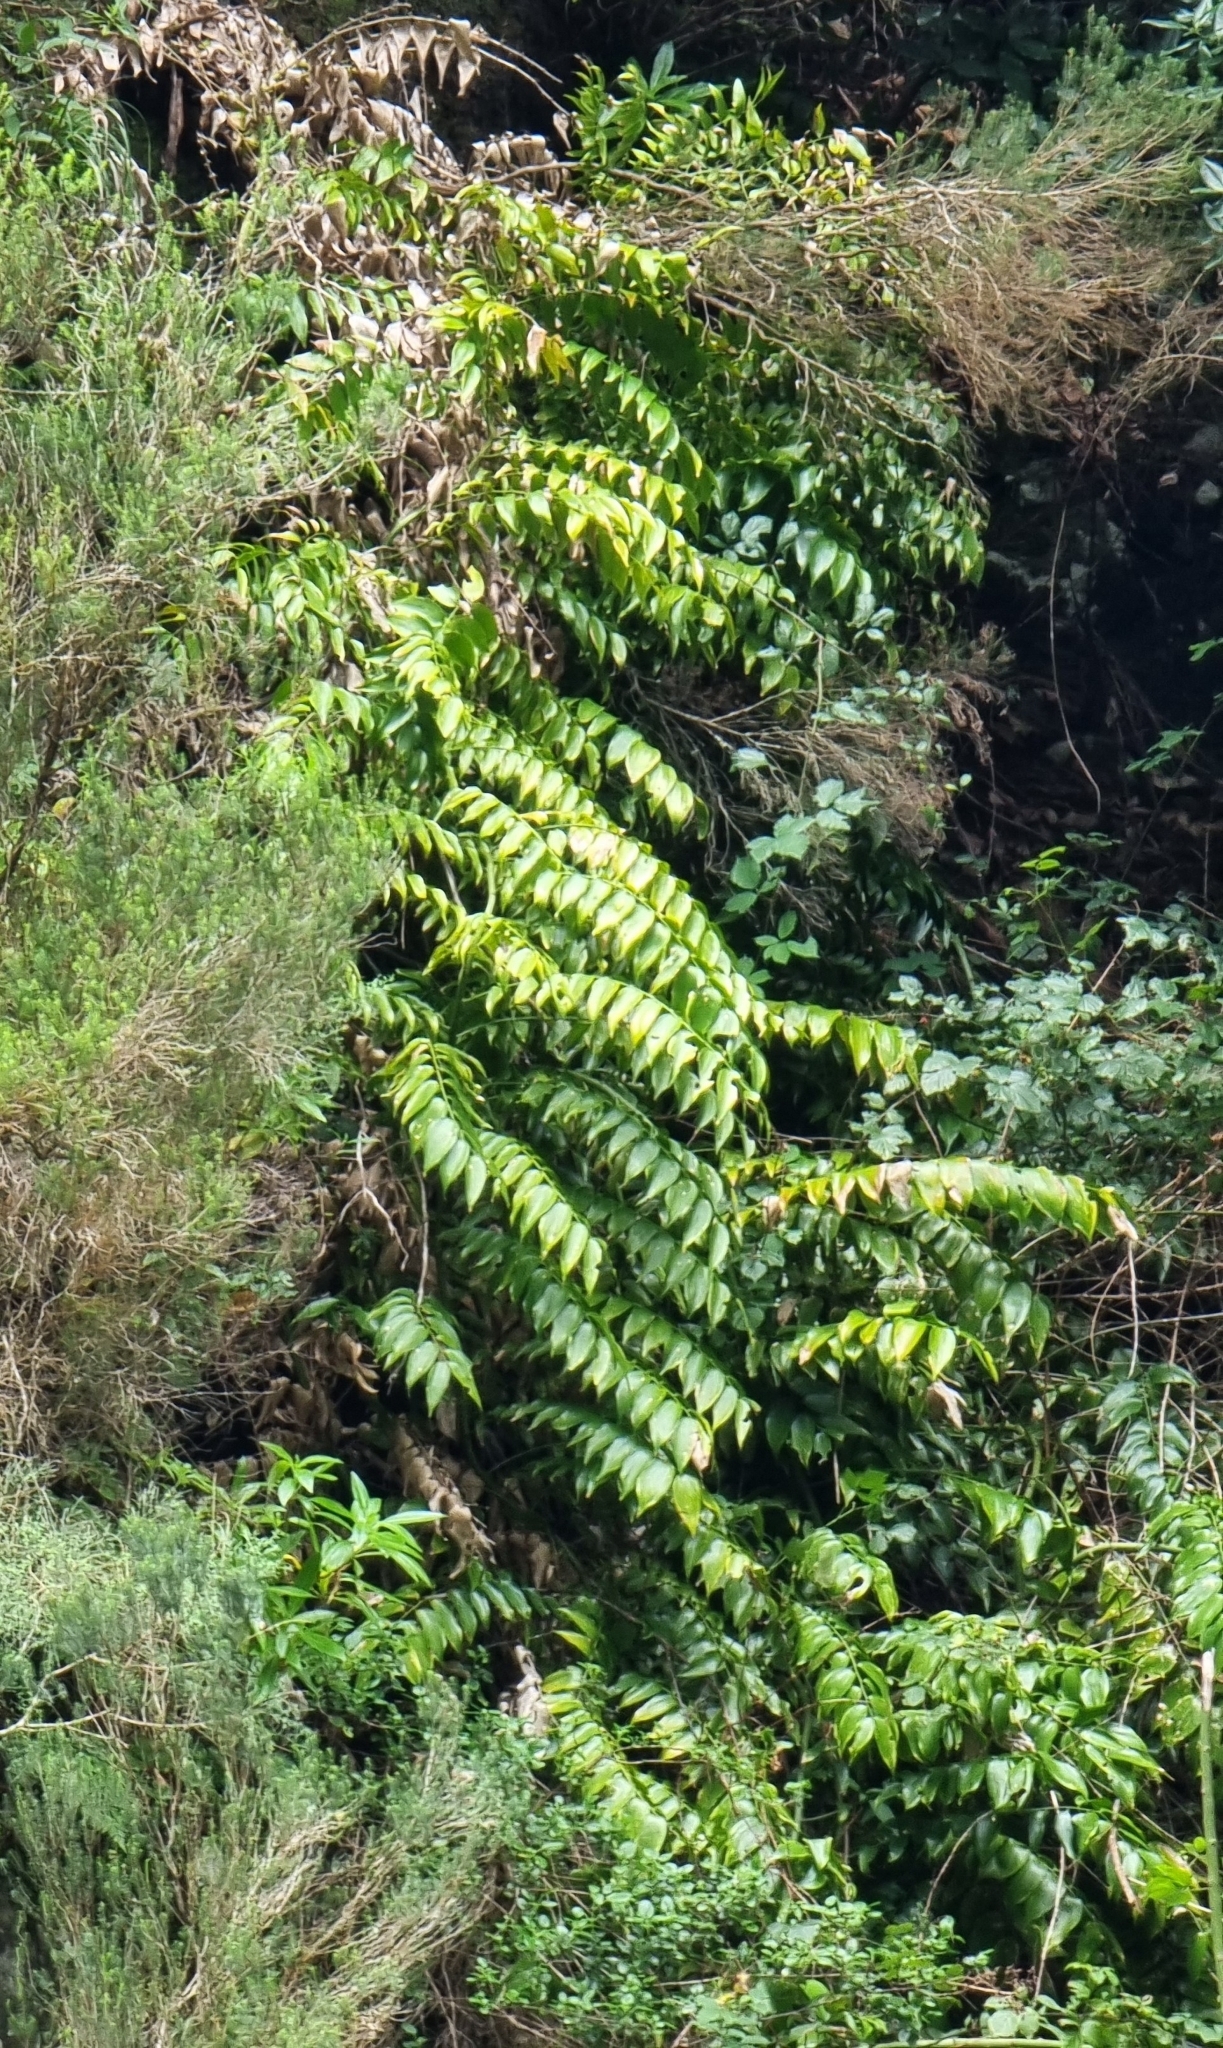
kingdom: Plantae
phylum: Tracheophyta
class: Liliopsida
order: Asparagales
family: Asparagaceae
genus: Semele
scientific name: Semele androgyna
